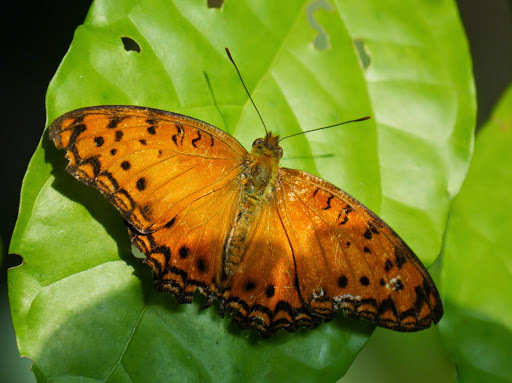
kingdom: Animalia
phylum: Arthropoda
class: Insecta
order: Lepidoptera
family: Nymphalidae
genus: Phalanta
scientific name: Phalanta columbina
